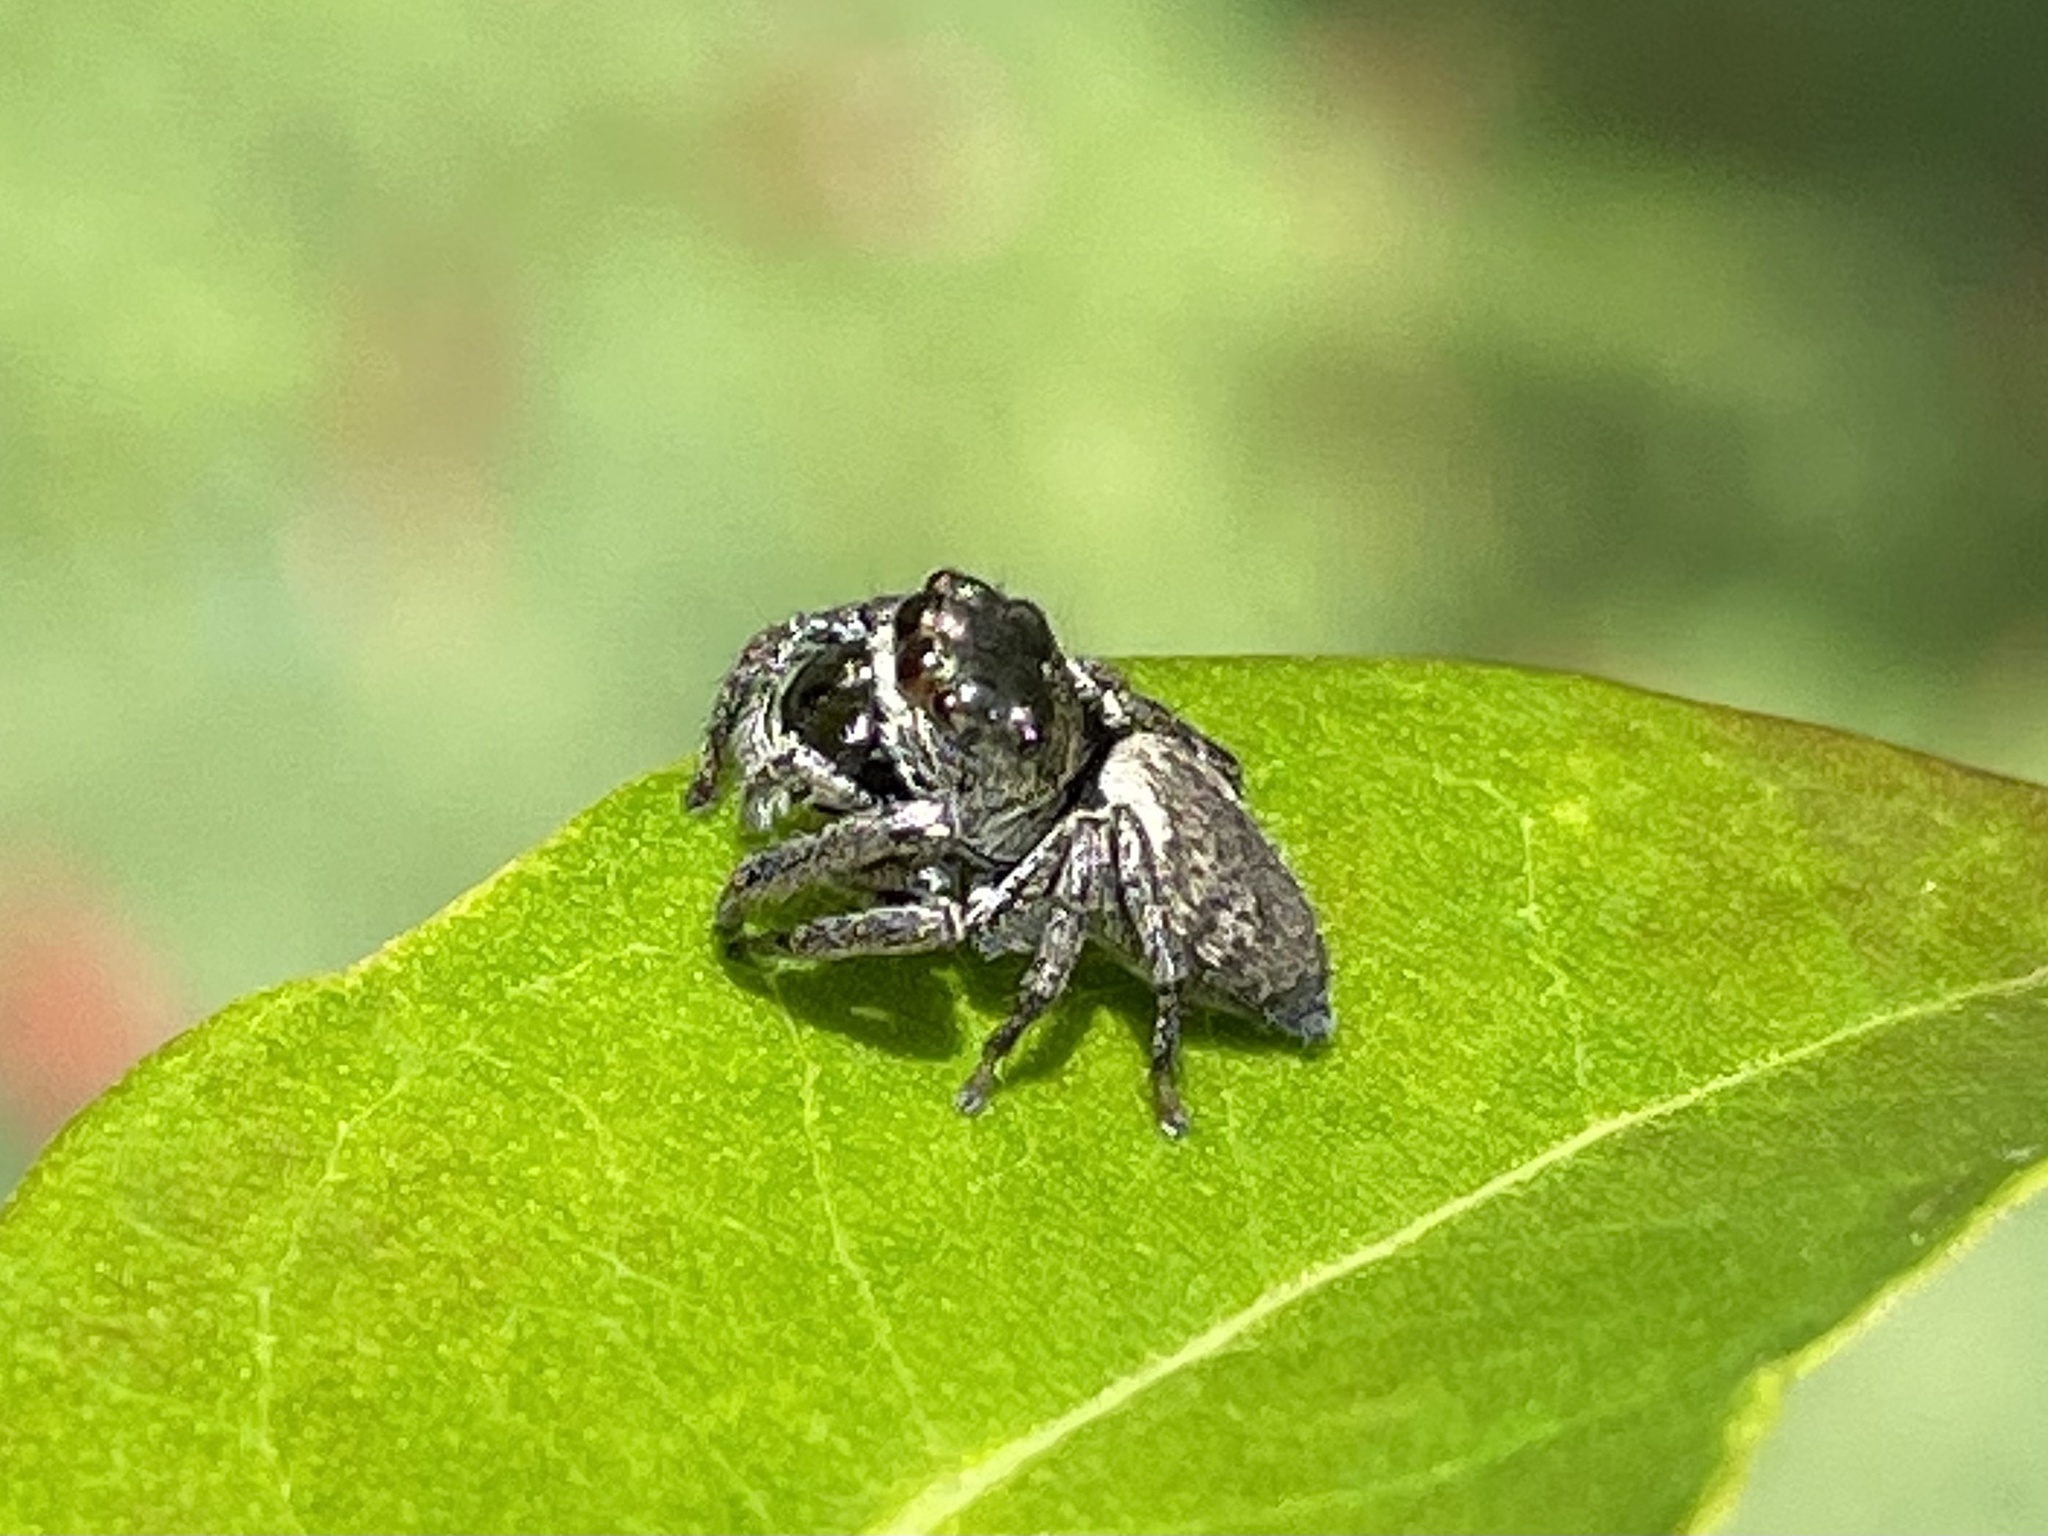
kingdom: Animalia
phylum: Arthropoda
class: Arachnida
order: Araneae
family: Salticidae
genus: Euryattus
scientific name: Euryattus bleekeri
